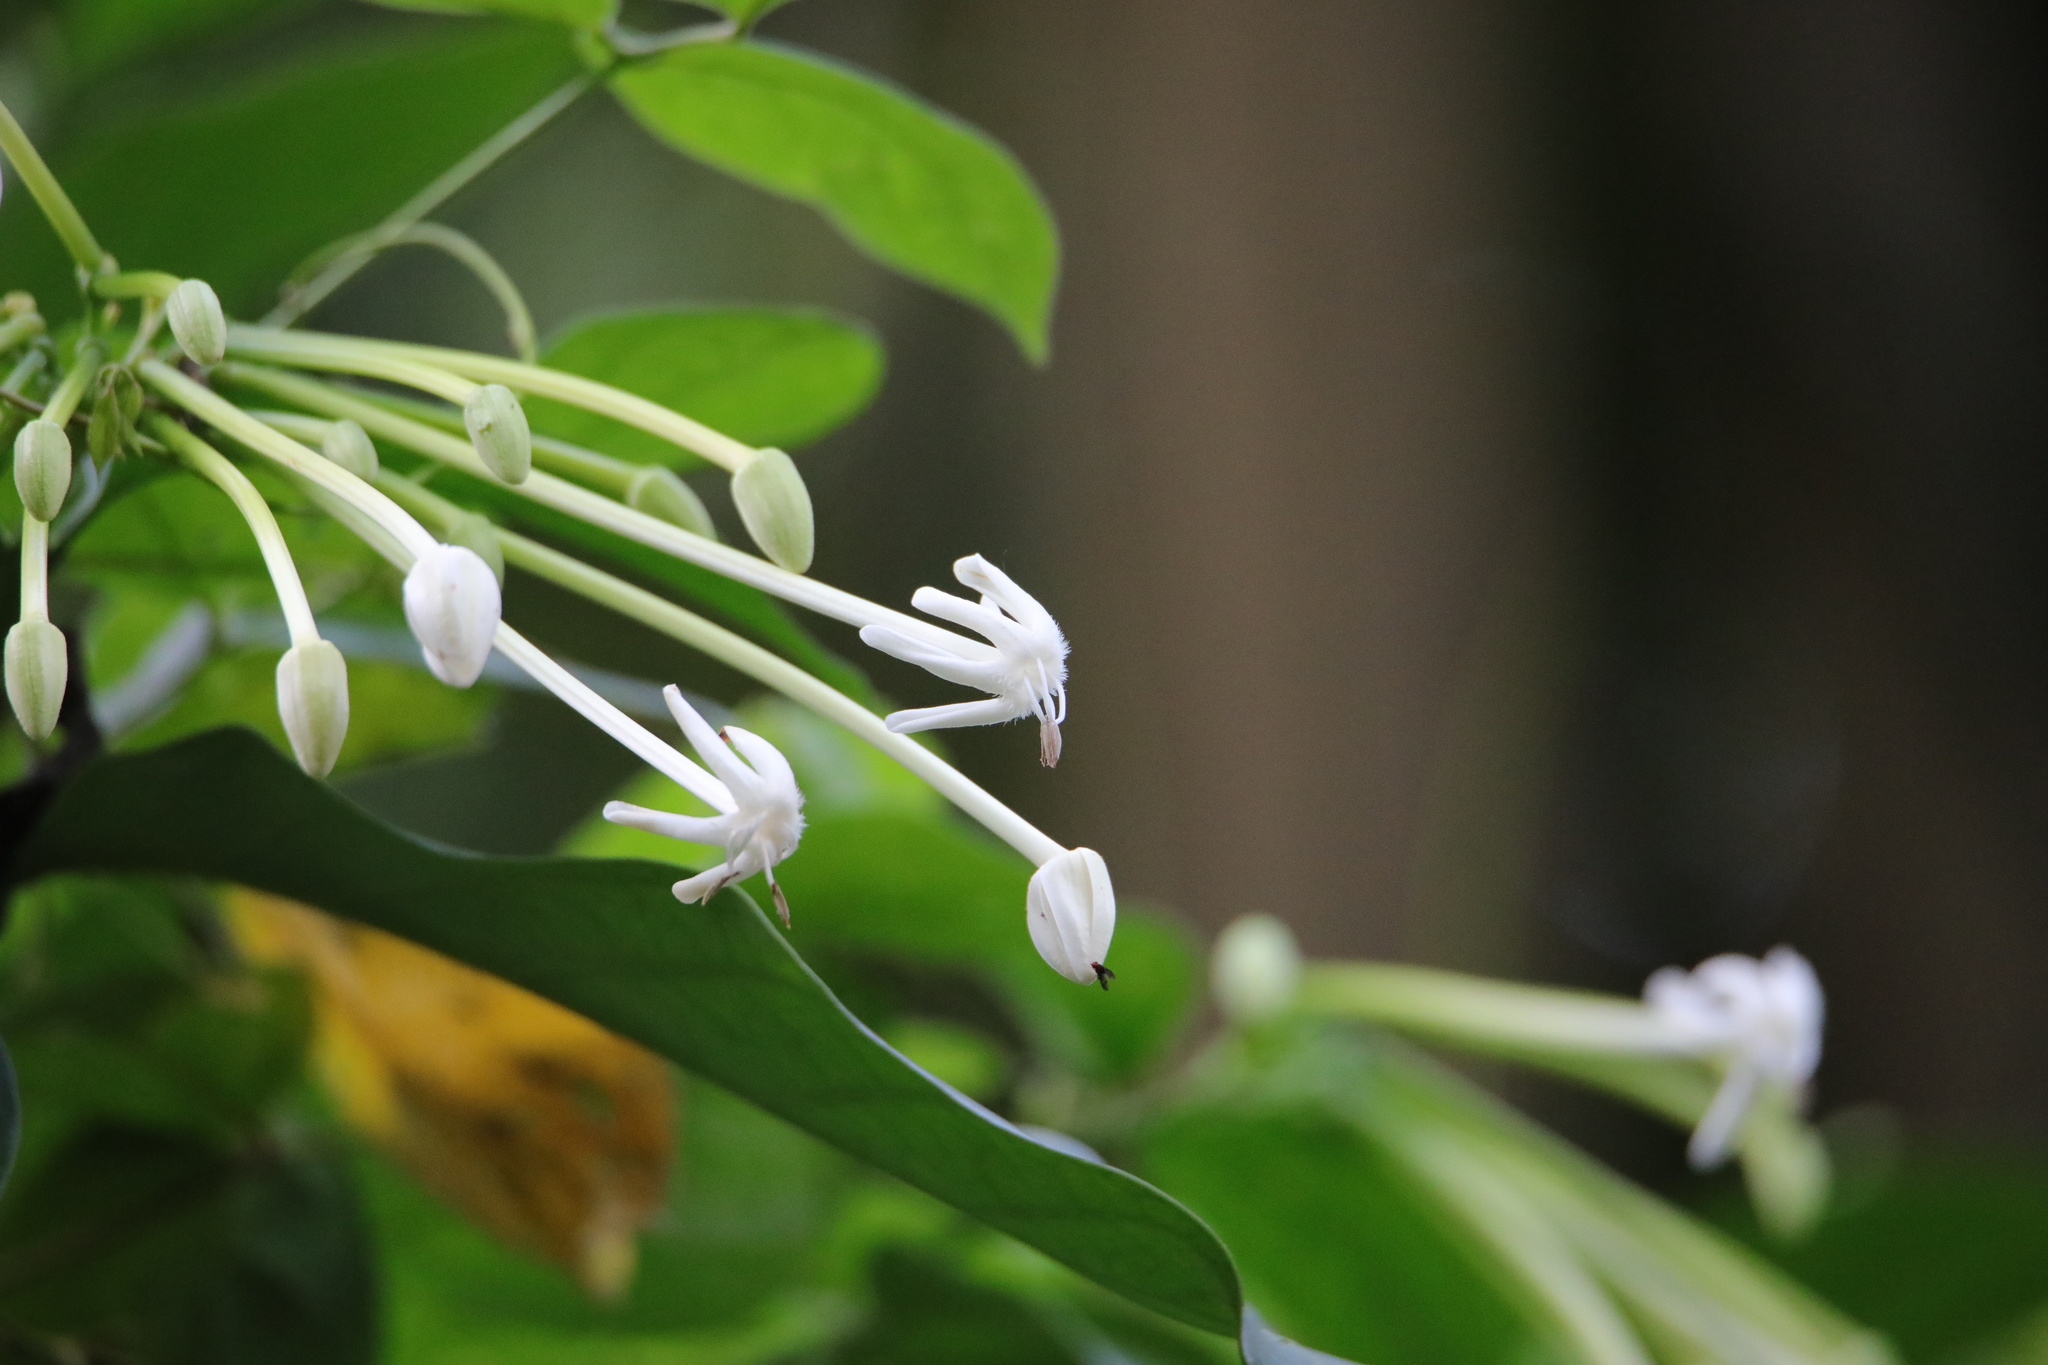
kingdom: Plantae
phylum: Tracheophyta
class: Magnoliopsida
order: Gentianales
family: Rubiaceae
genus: Posoqueria
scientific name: Posoqueria latifolia
